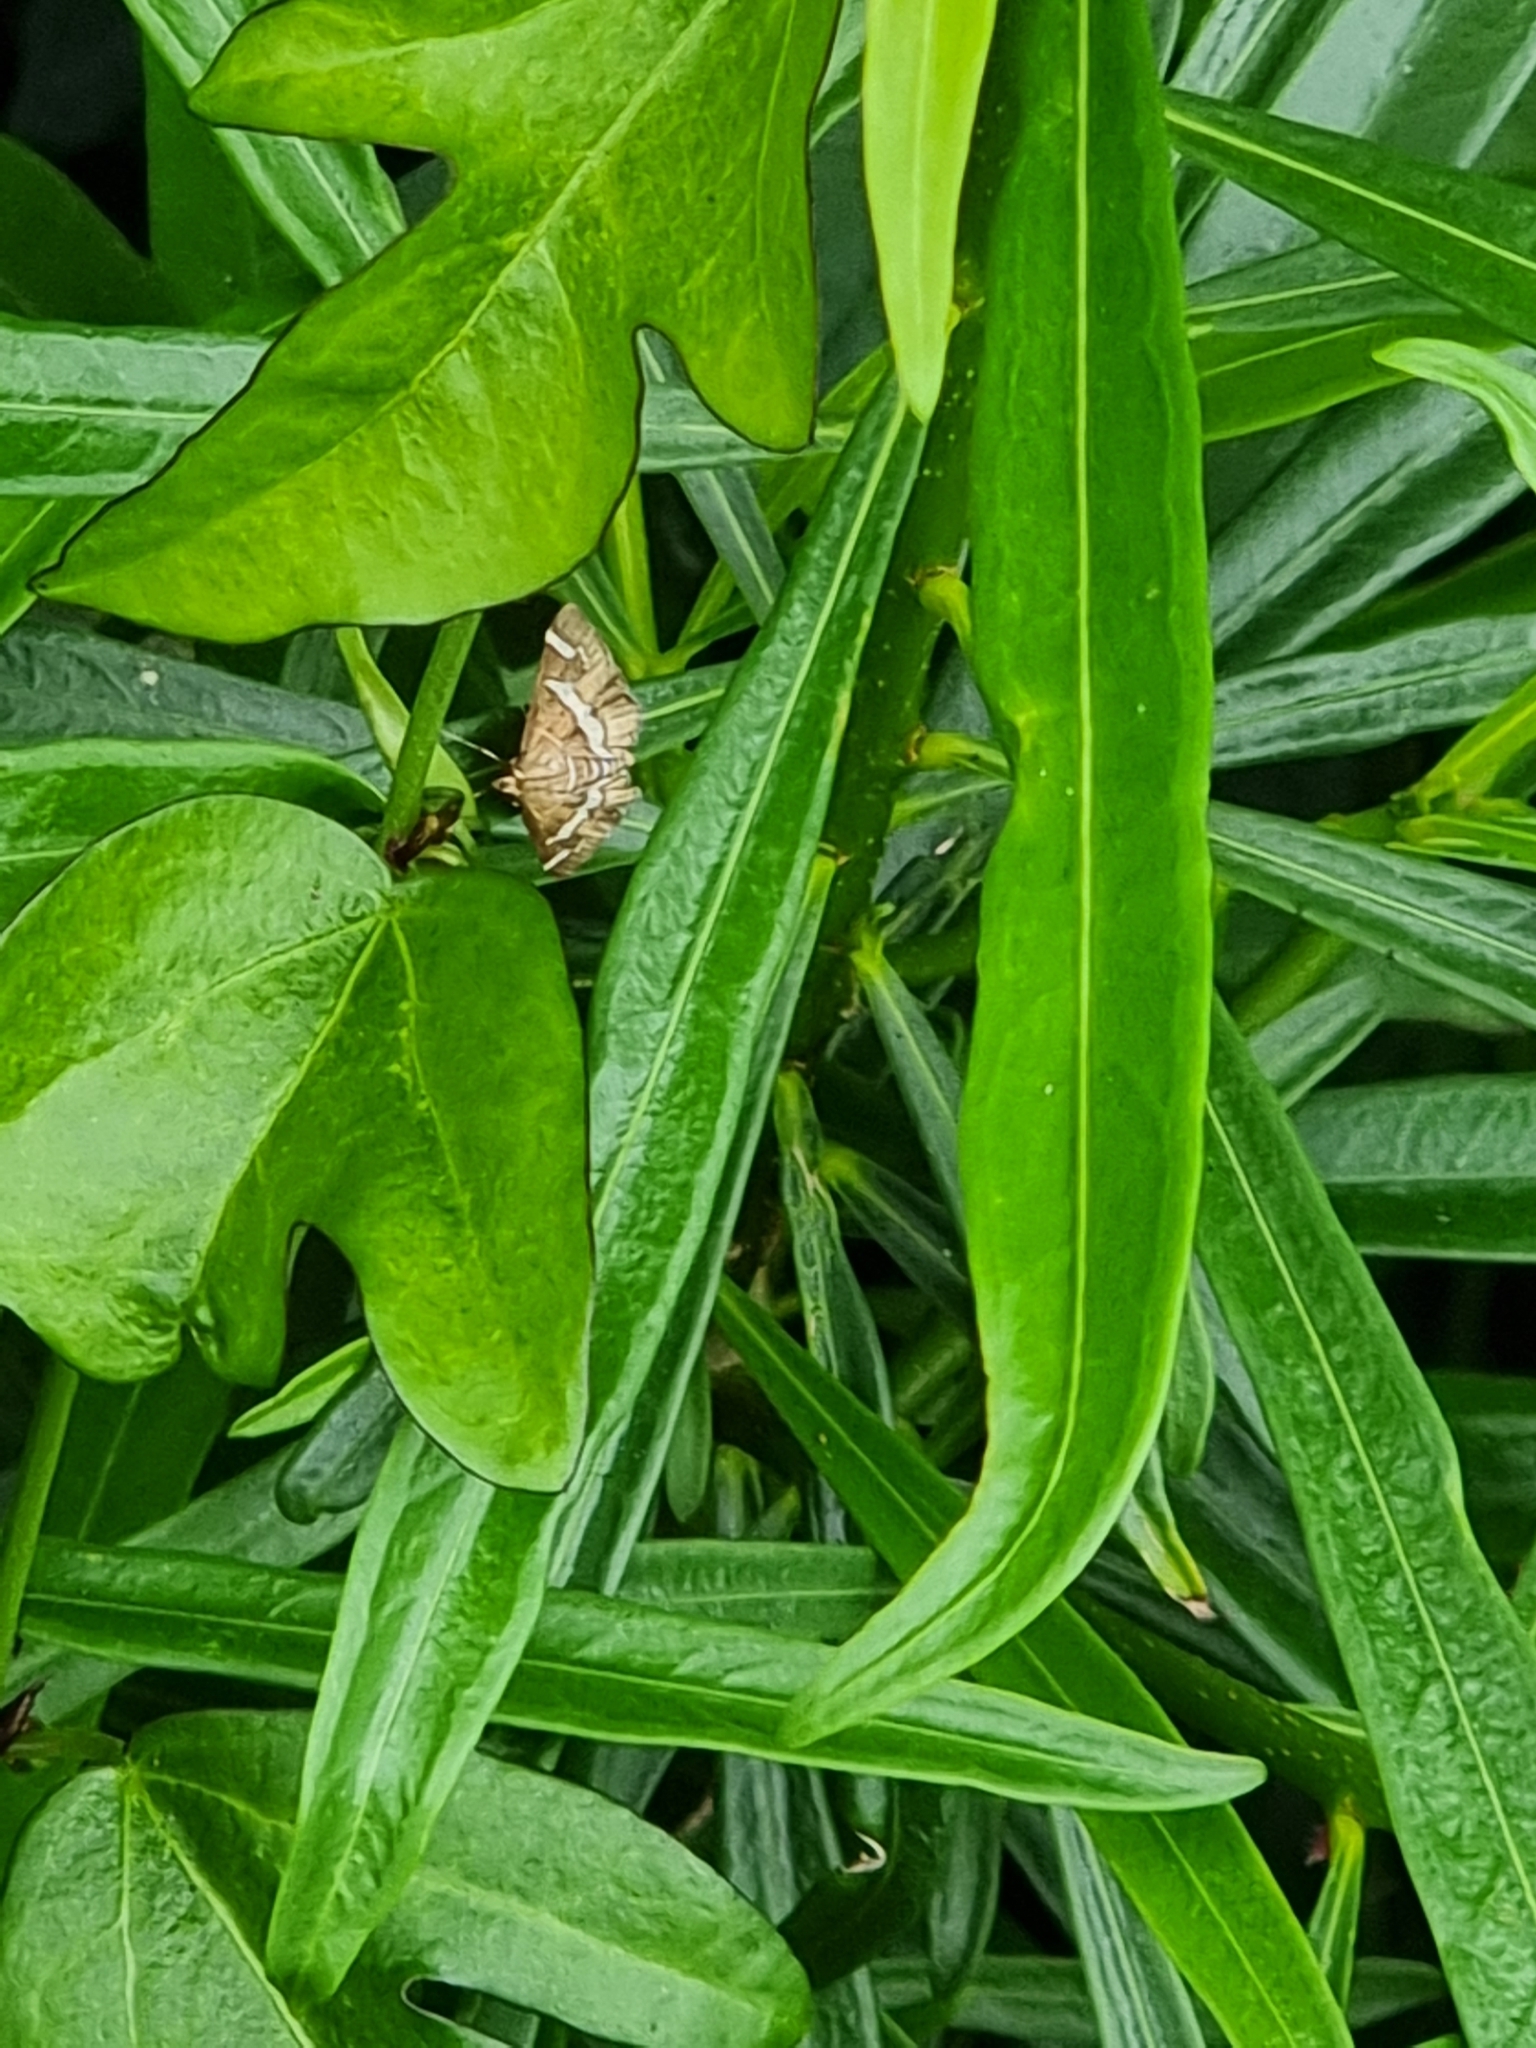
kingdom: Animalia
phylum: Arthropoda
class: Insecta
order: Lepidoptera
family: Crambidae
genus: Spoladea
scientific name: Spoladea recurvalis
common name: Beet webworm moth
